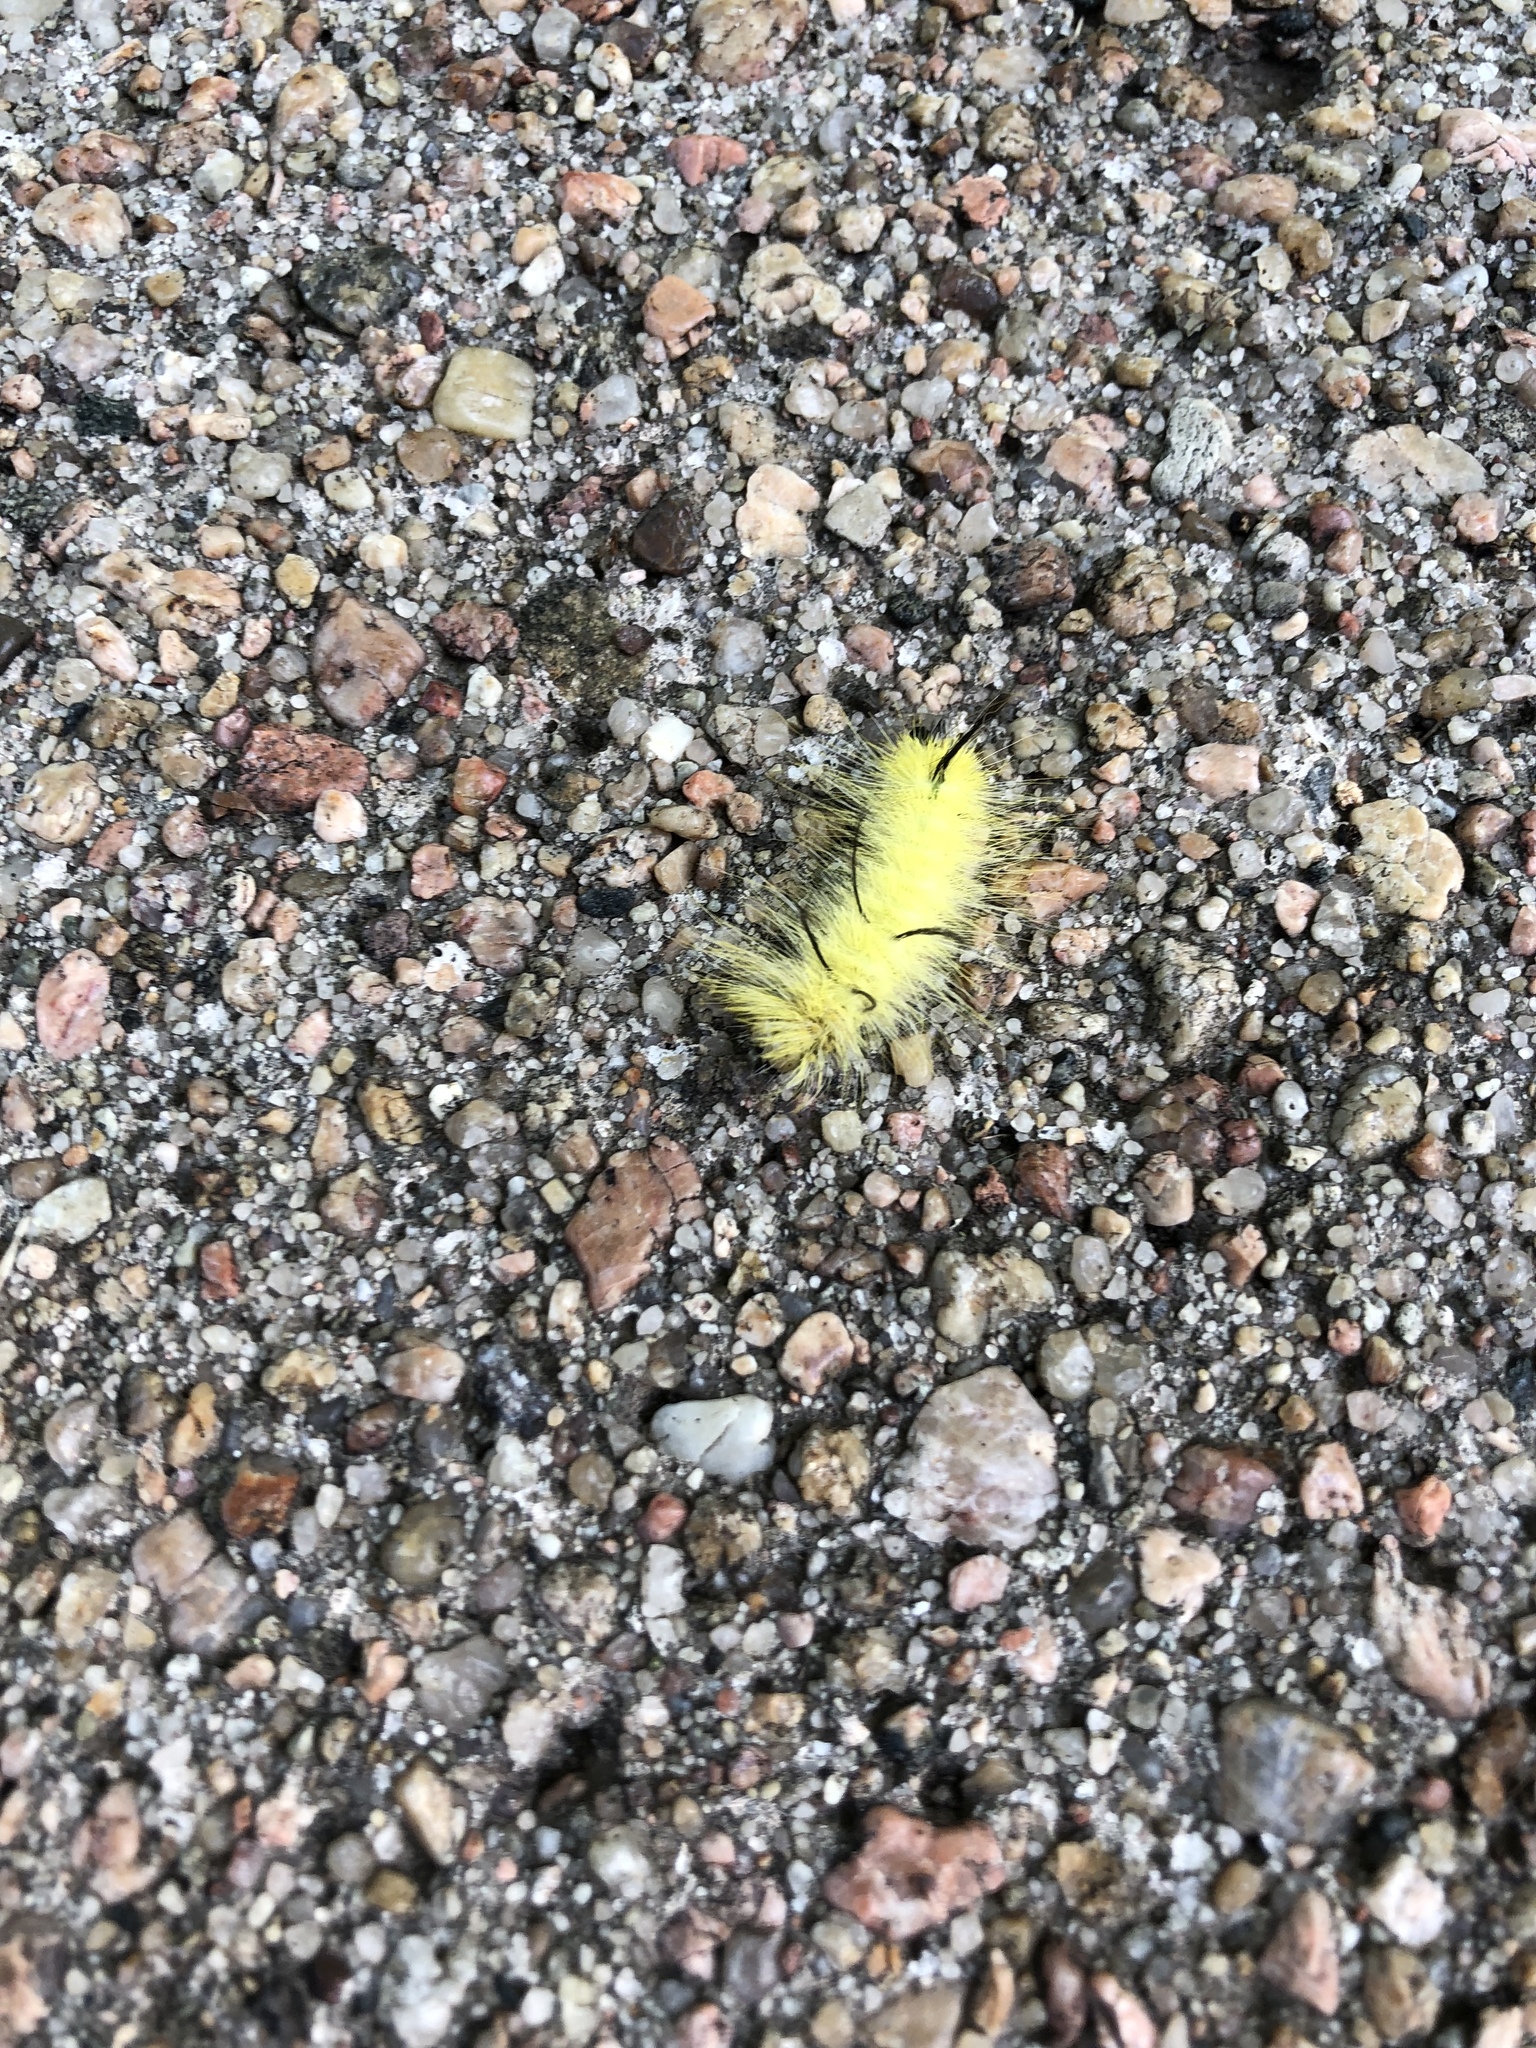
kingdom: Animalia
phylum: Arthropoda
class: Insecta
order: Lepidoptera
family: Noctuidae
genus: Acronicta
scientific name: Acronicta americana
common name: American dagger
